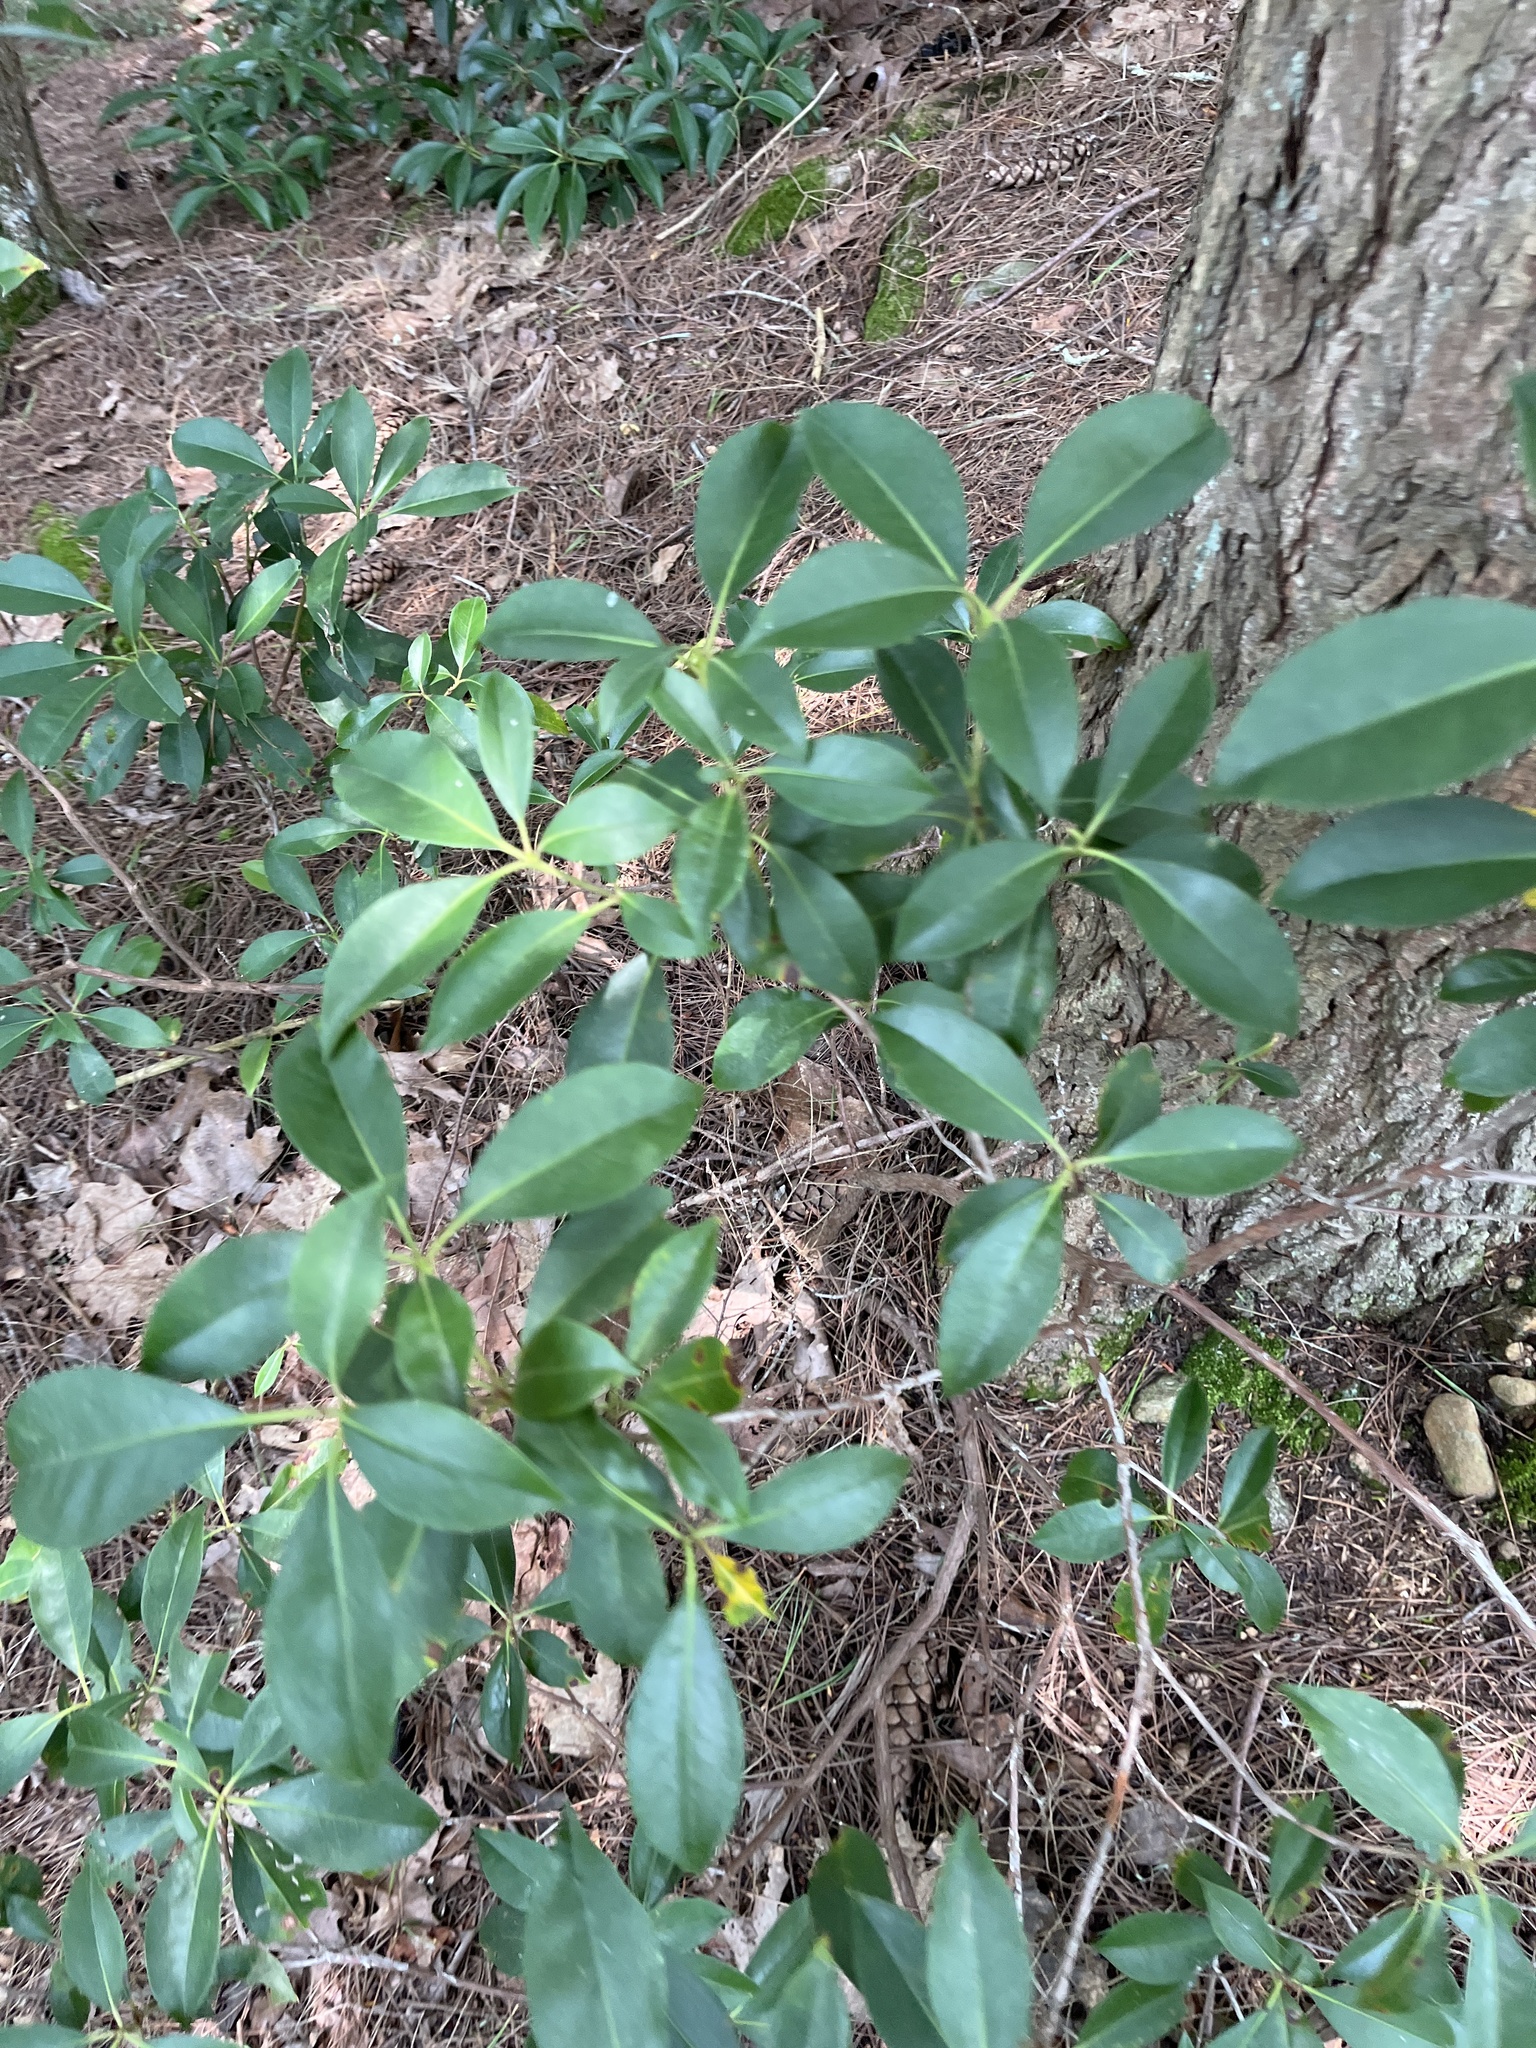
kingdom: Plantae
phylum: Tracheophyta
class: Magnoliopsida
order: Ericales
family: Ericaceae
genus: Kalmia
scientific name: Kalmia latifolia
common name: Mountain-laurel
